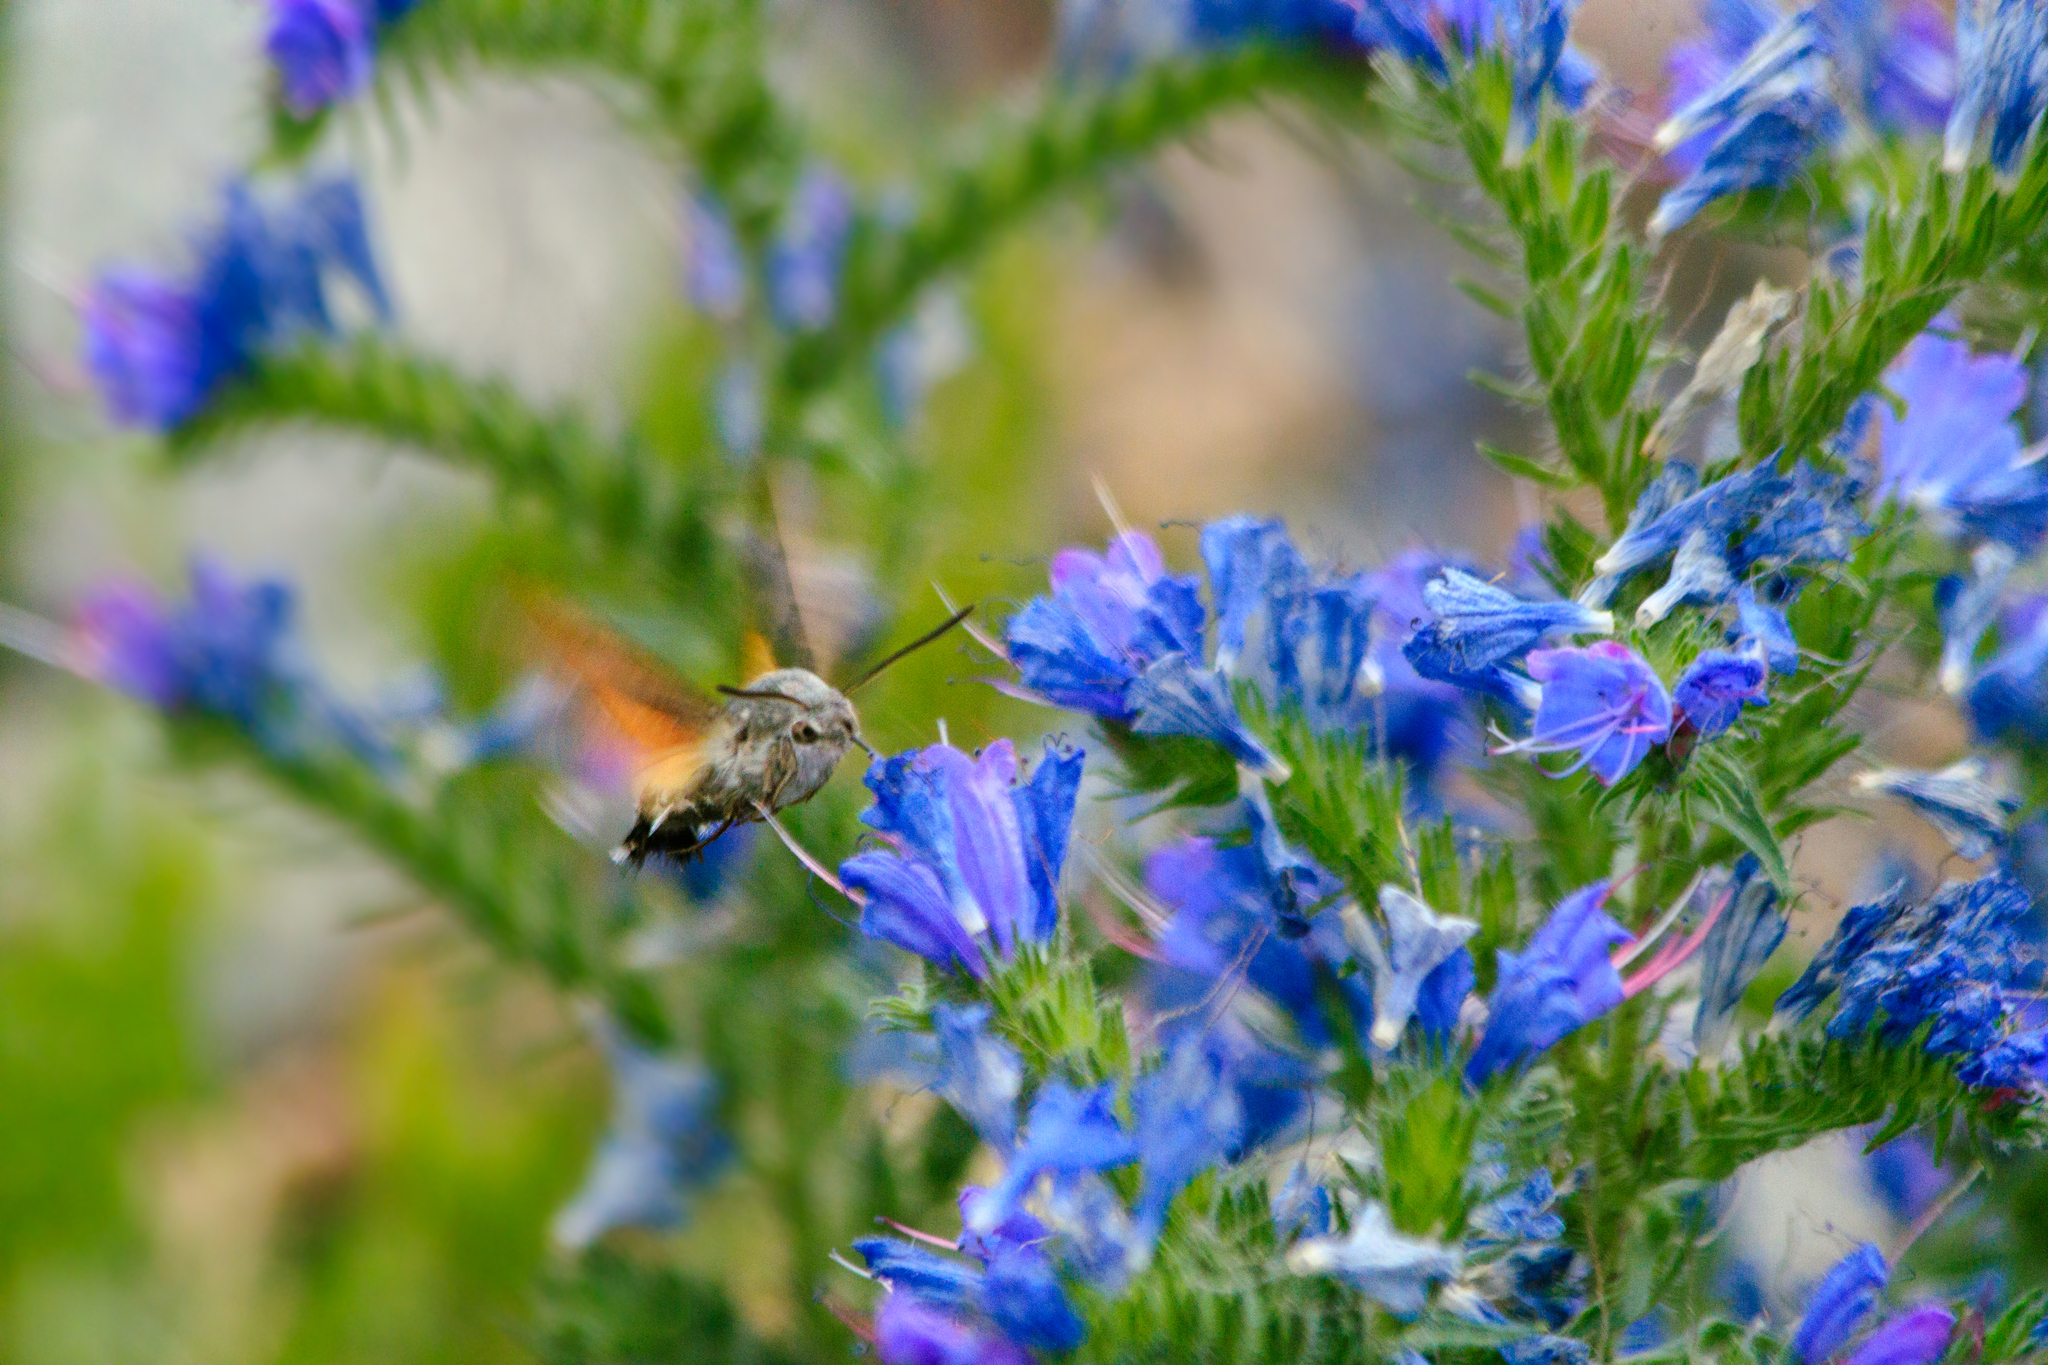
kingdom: Animalia
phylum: Arthropoda
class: Insecta
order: Lepidoptera
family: Sphingidae
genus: Macroglossum
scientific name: Macroglossum stellatarum
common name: Humming-bird hawk-moth
